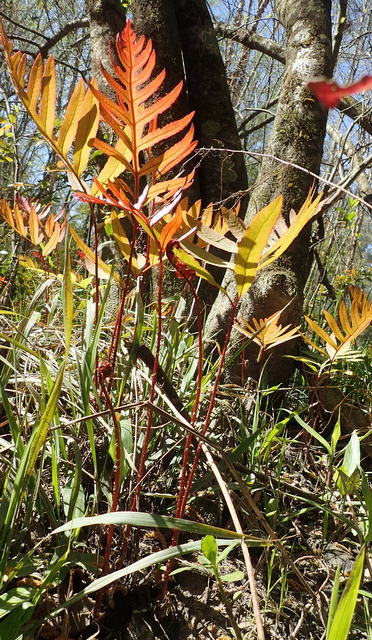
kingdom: Plantae
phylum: Tracheophyta
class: Polypodiopsida
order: Polypodiales
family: Blechnaceae
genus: Lorinseria
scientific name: Lorinseria areolata
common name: Dwarf chain fern
